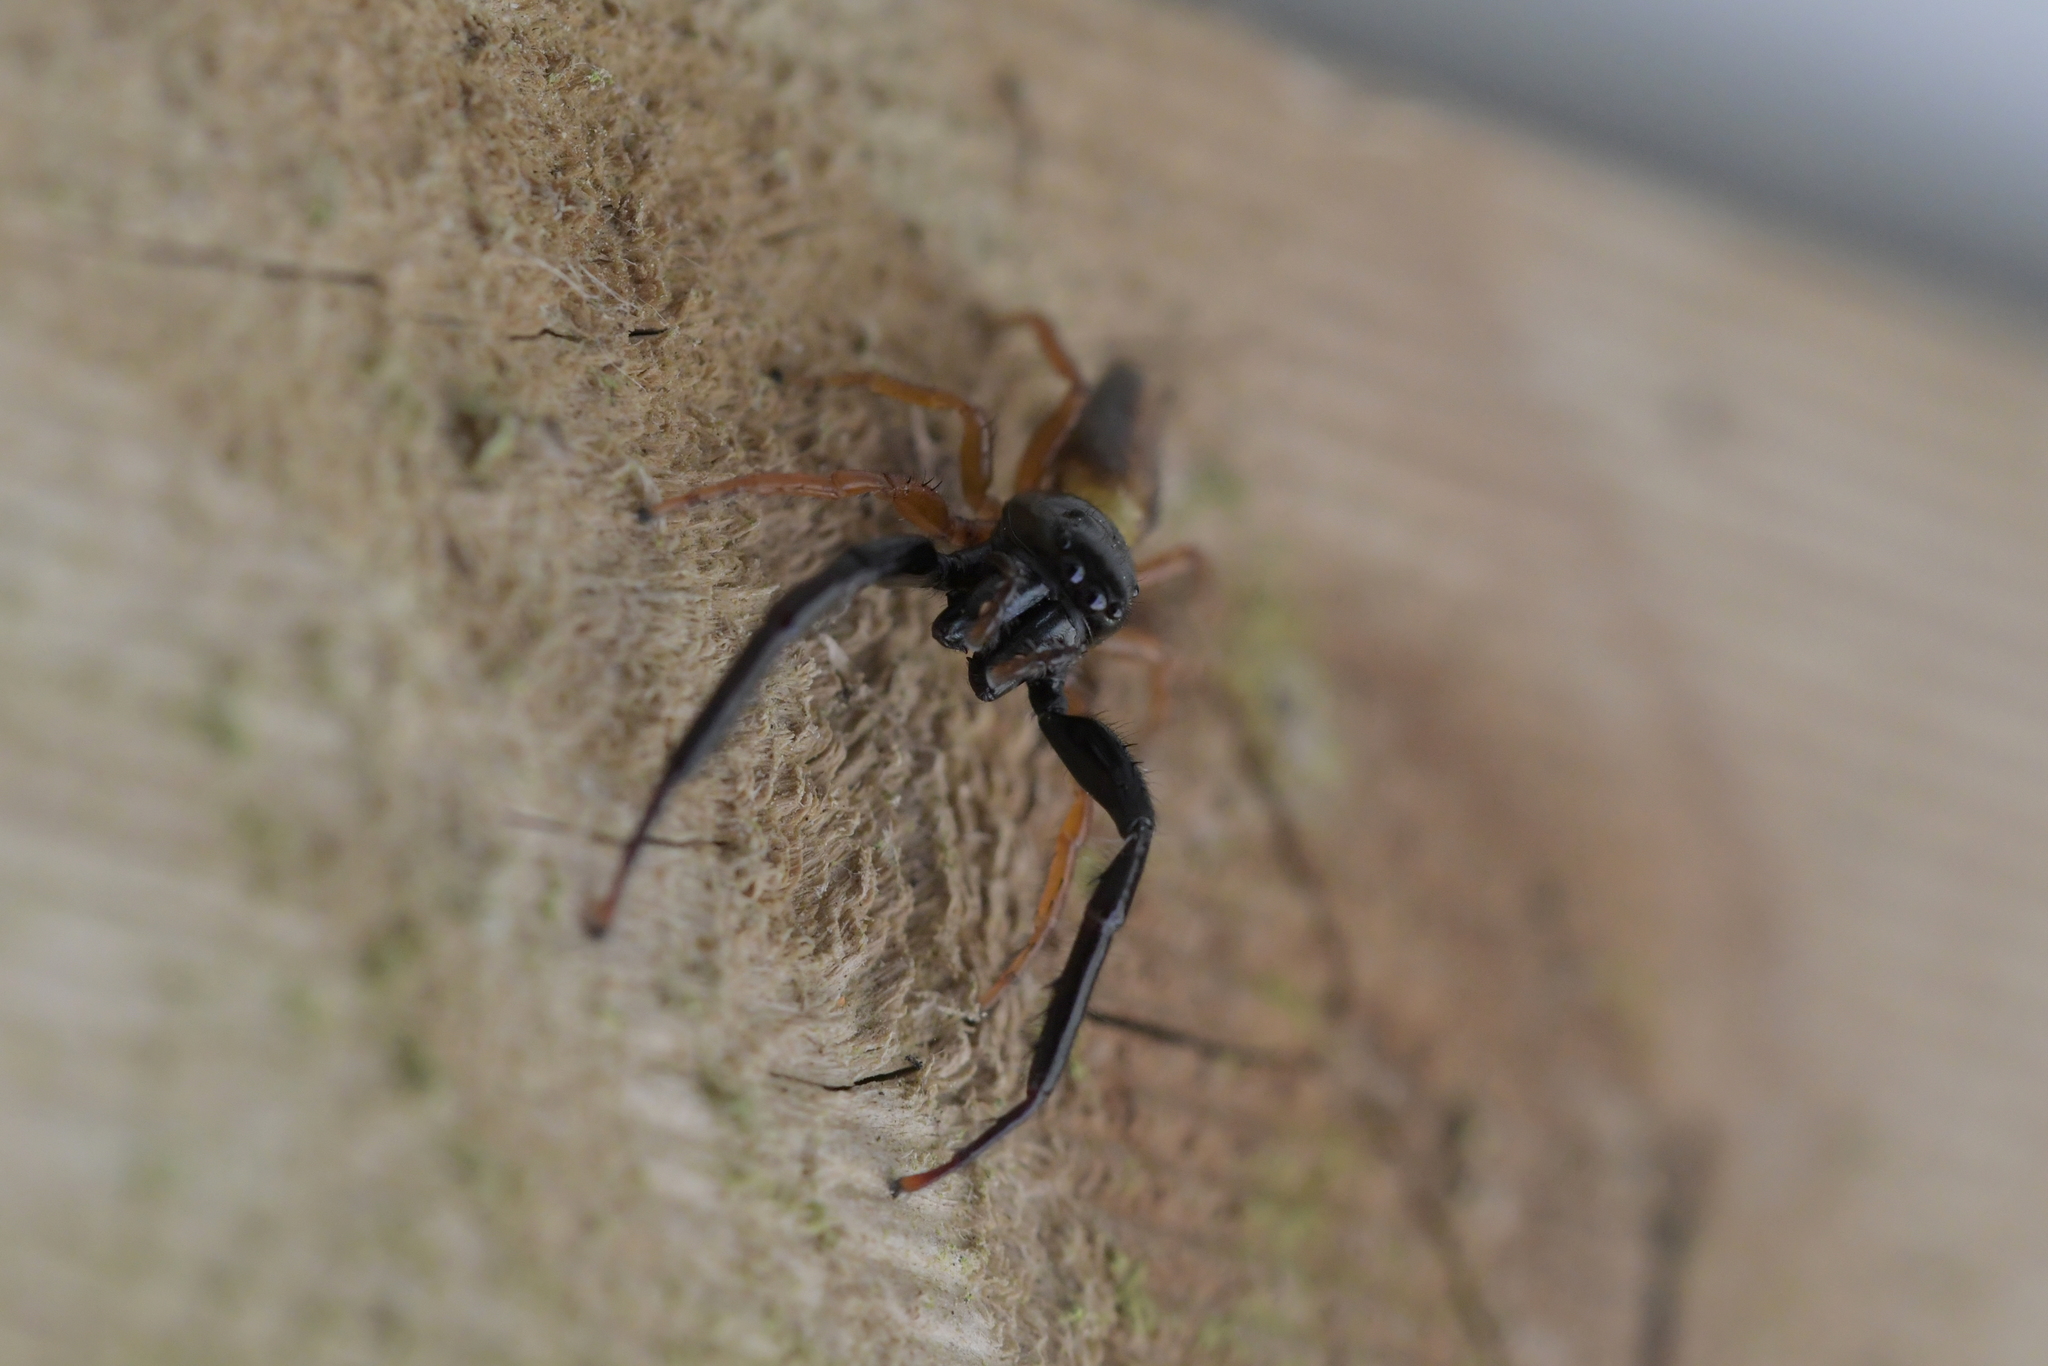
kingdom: Animalia
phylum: Arthropoda
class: Arachnida
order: Araneae
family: Salticidae
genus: Trite
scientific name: Trite planiceps
